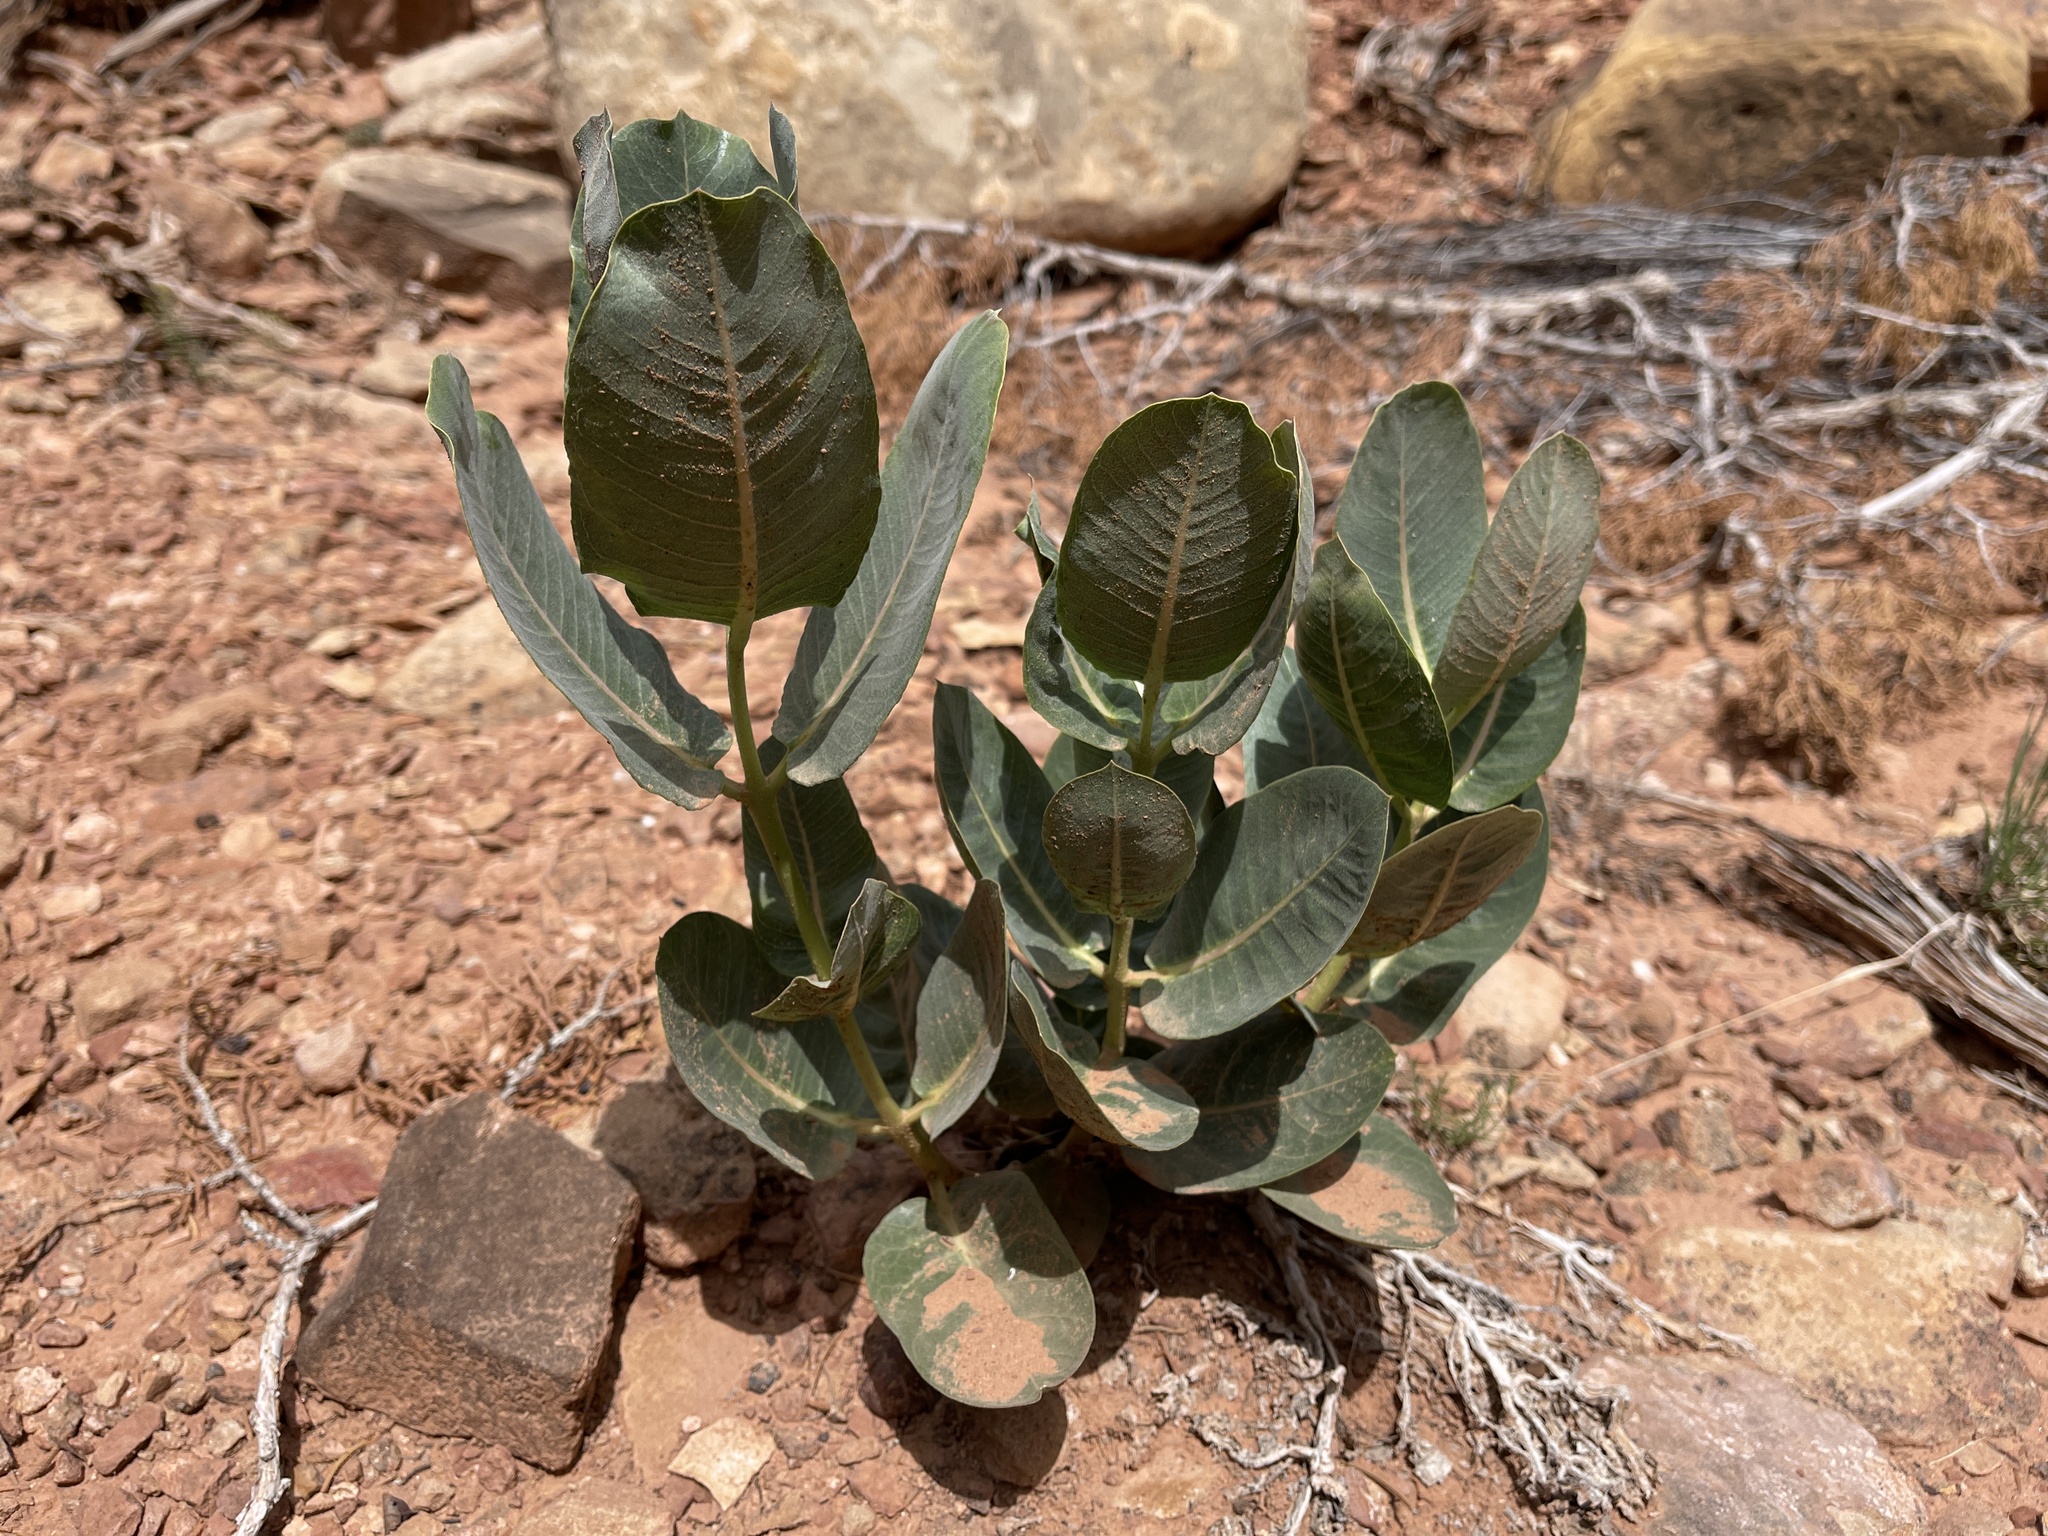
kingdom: Plantae
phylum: Tracheophyta
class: Magnoliopsida
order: Gentianales
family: Apocynaceae
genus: Asclepias
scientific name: Asclepias latifolia
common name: Broadleaf milkweed
